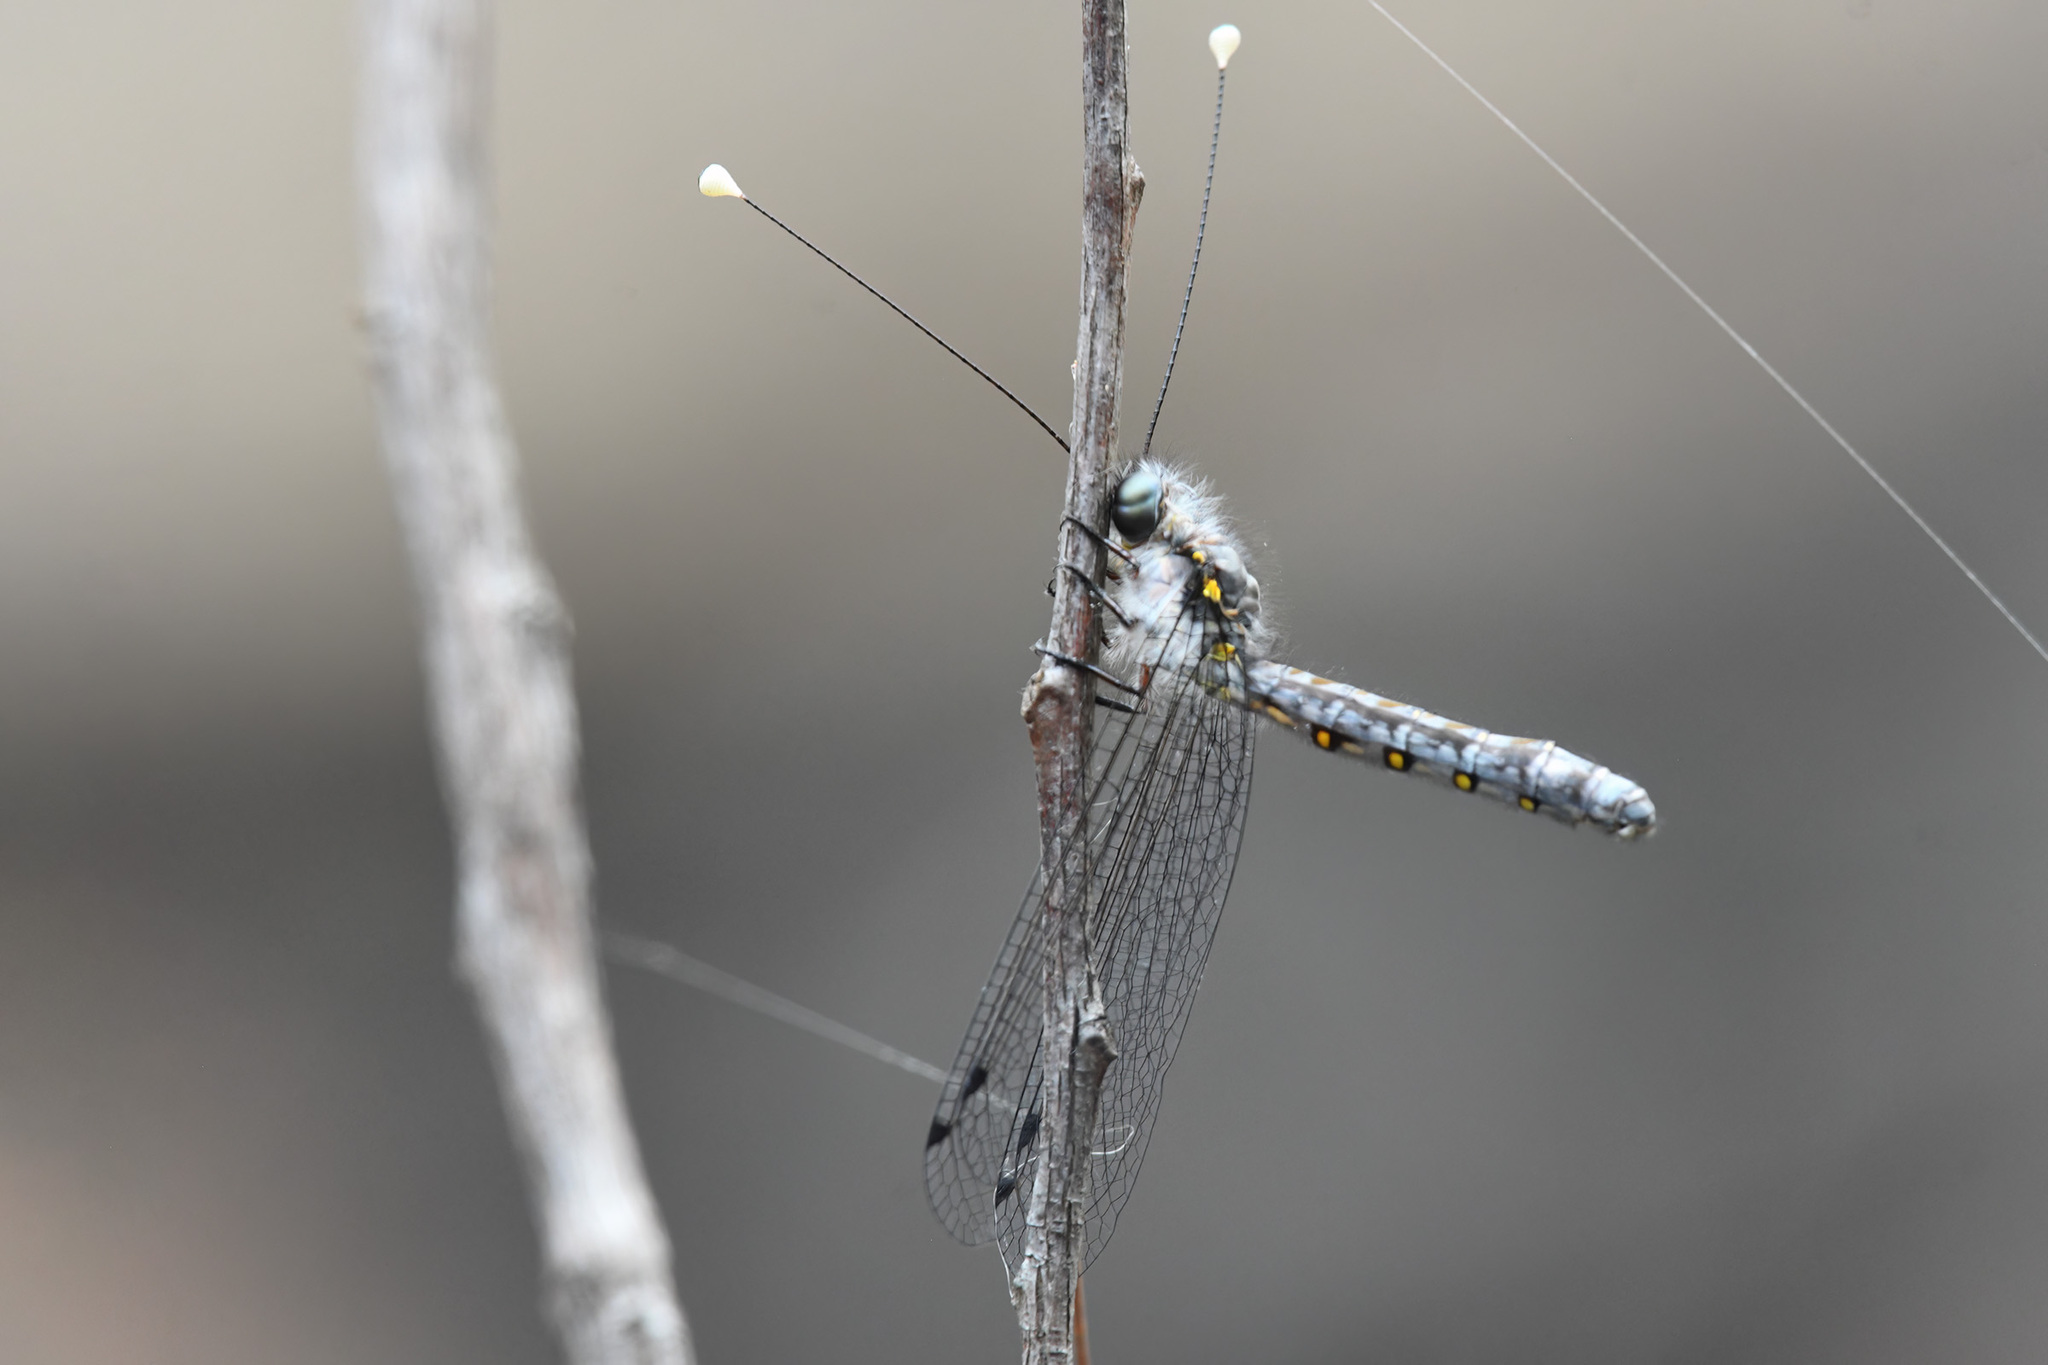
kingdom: Animalia
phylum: Arthropoda
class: Insecta
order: Neuroptera
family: Ascalaphidae
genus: Suhpalacsa
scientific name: Suhpalacsa lyriformis
